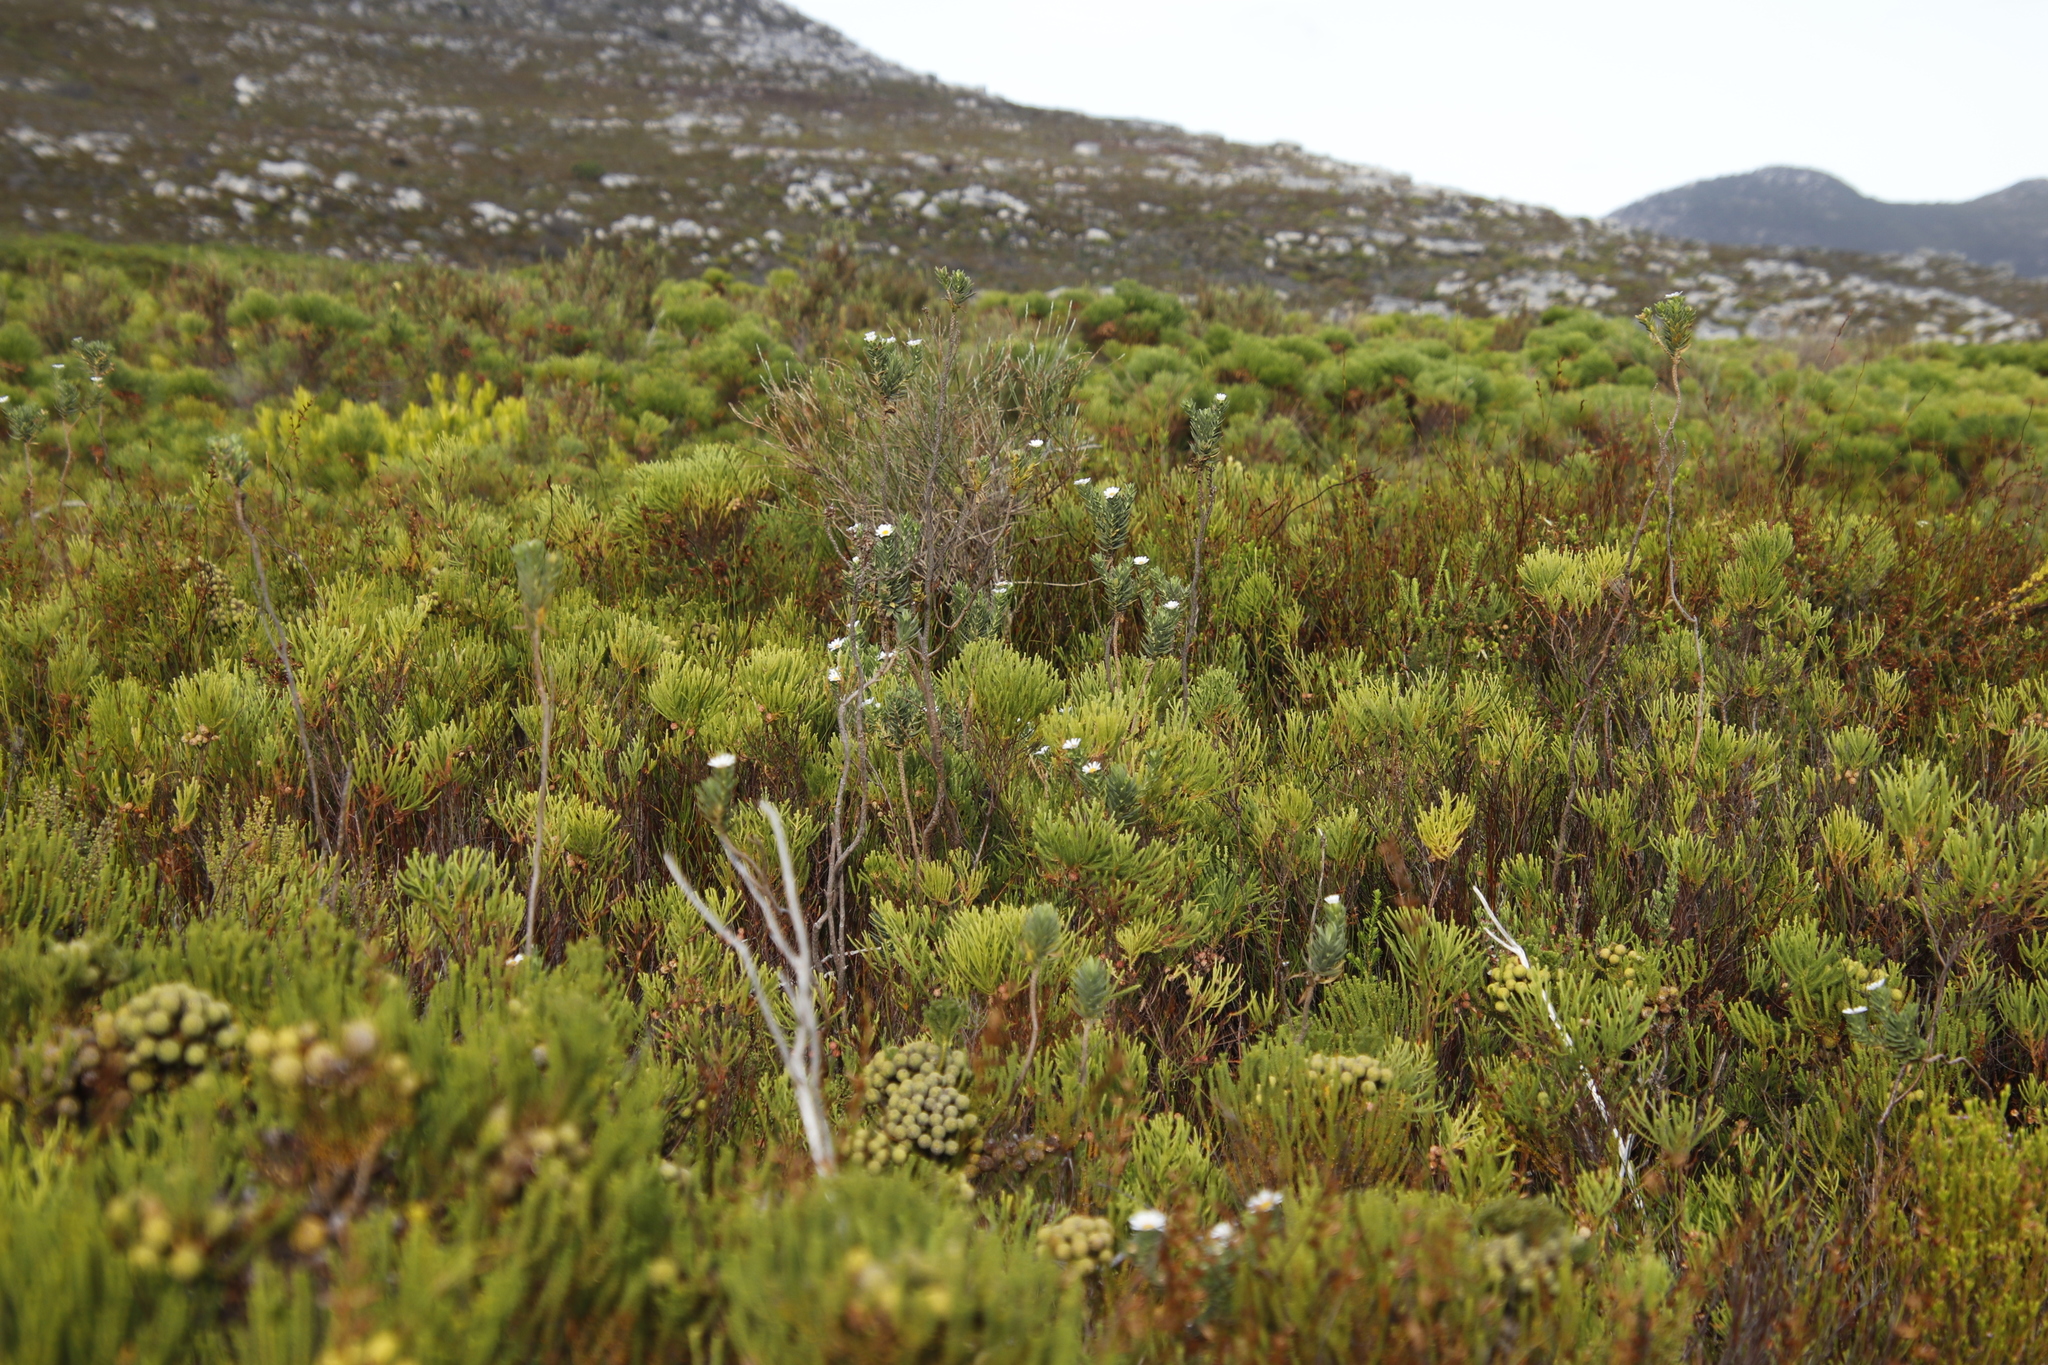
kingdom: Plantae
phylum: Tracheophyta
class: Magnoliopsida
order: Asterales
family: Asteraceae
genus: Osmitopsis
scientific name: Osmitopsis asteriscoides
